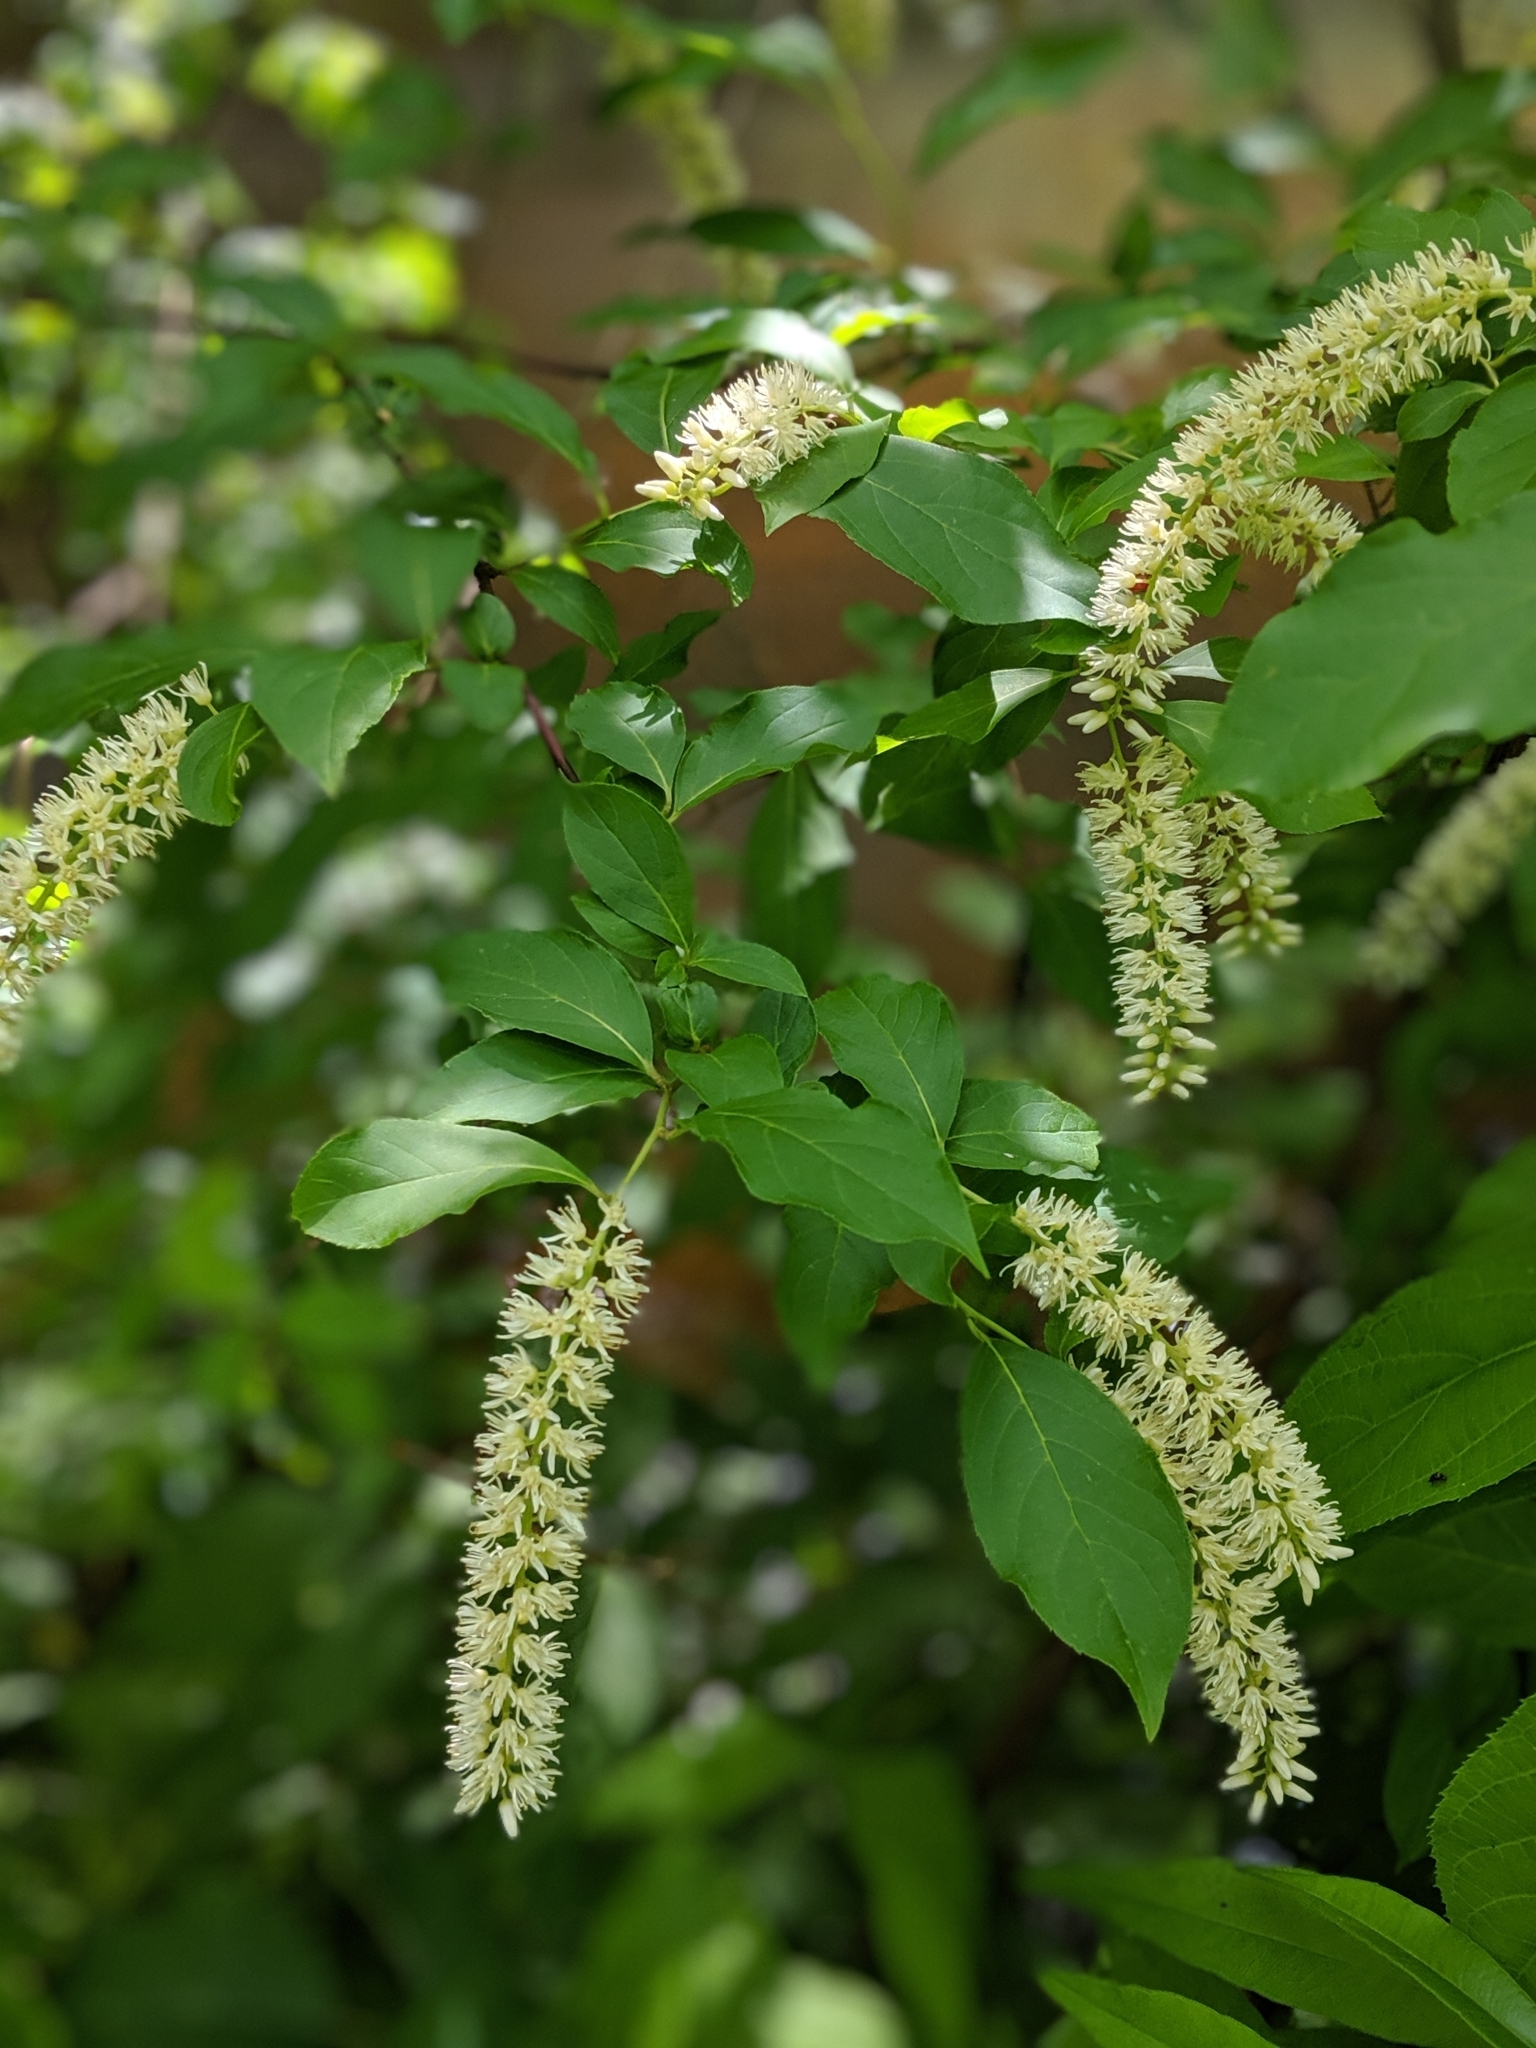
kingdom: Plantae
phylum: Tracheophyta
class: Magnoliopsida
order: Saxifragales
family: Iteaceae
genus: Itea
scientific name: Itea virginica
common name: Sweetspire
